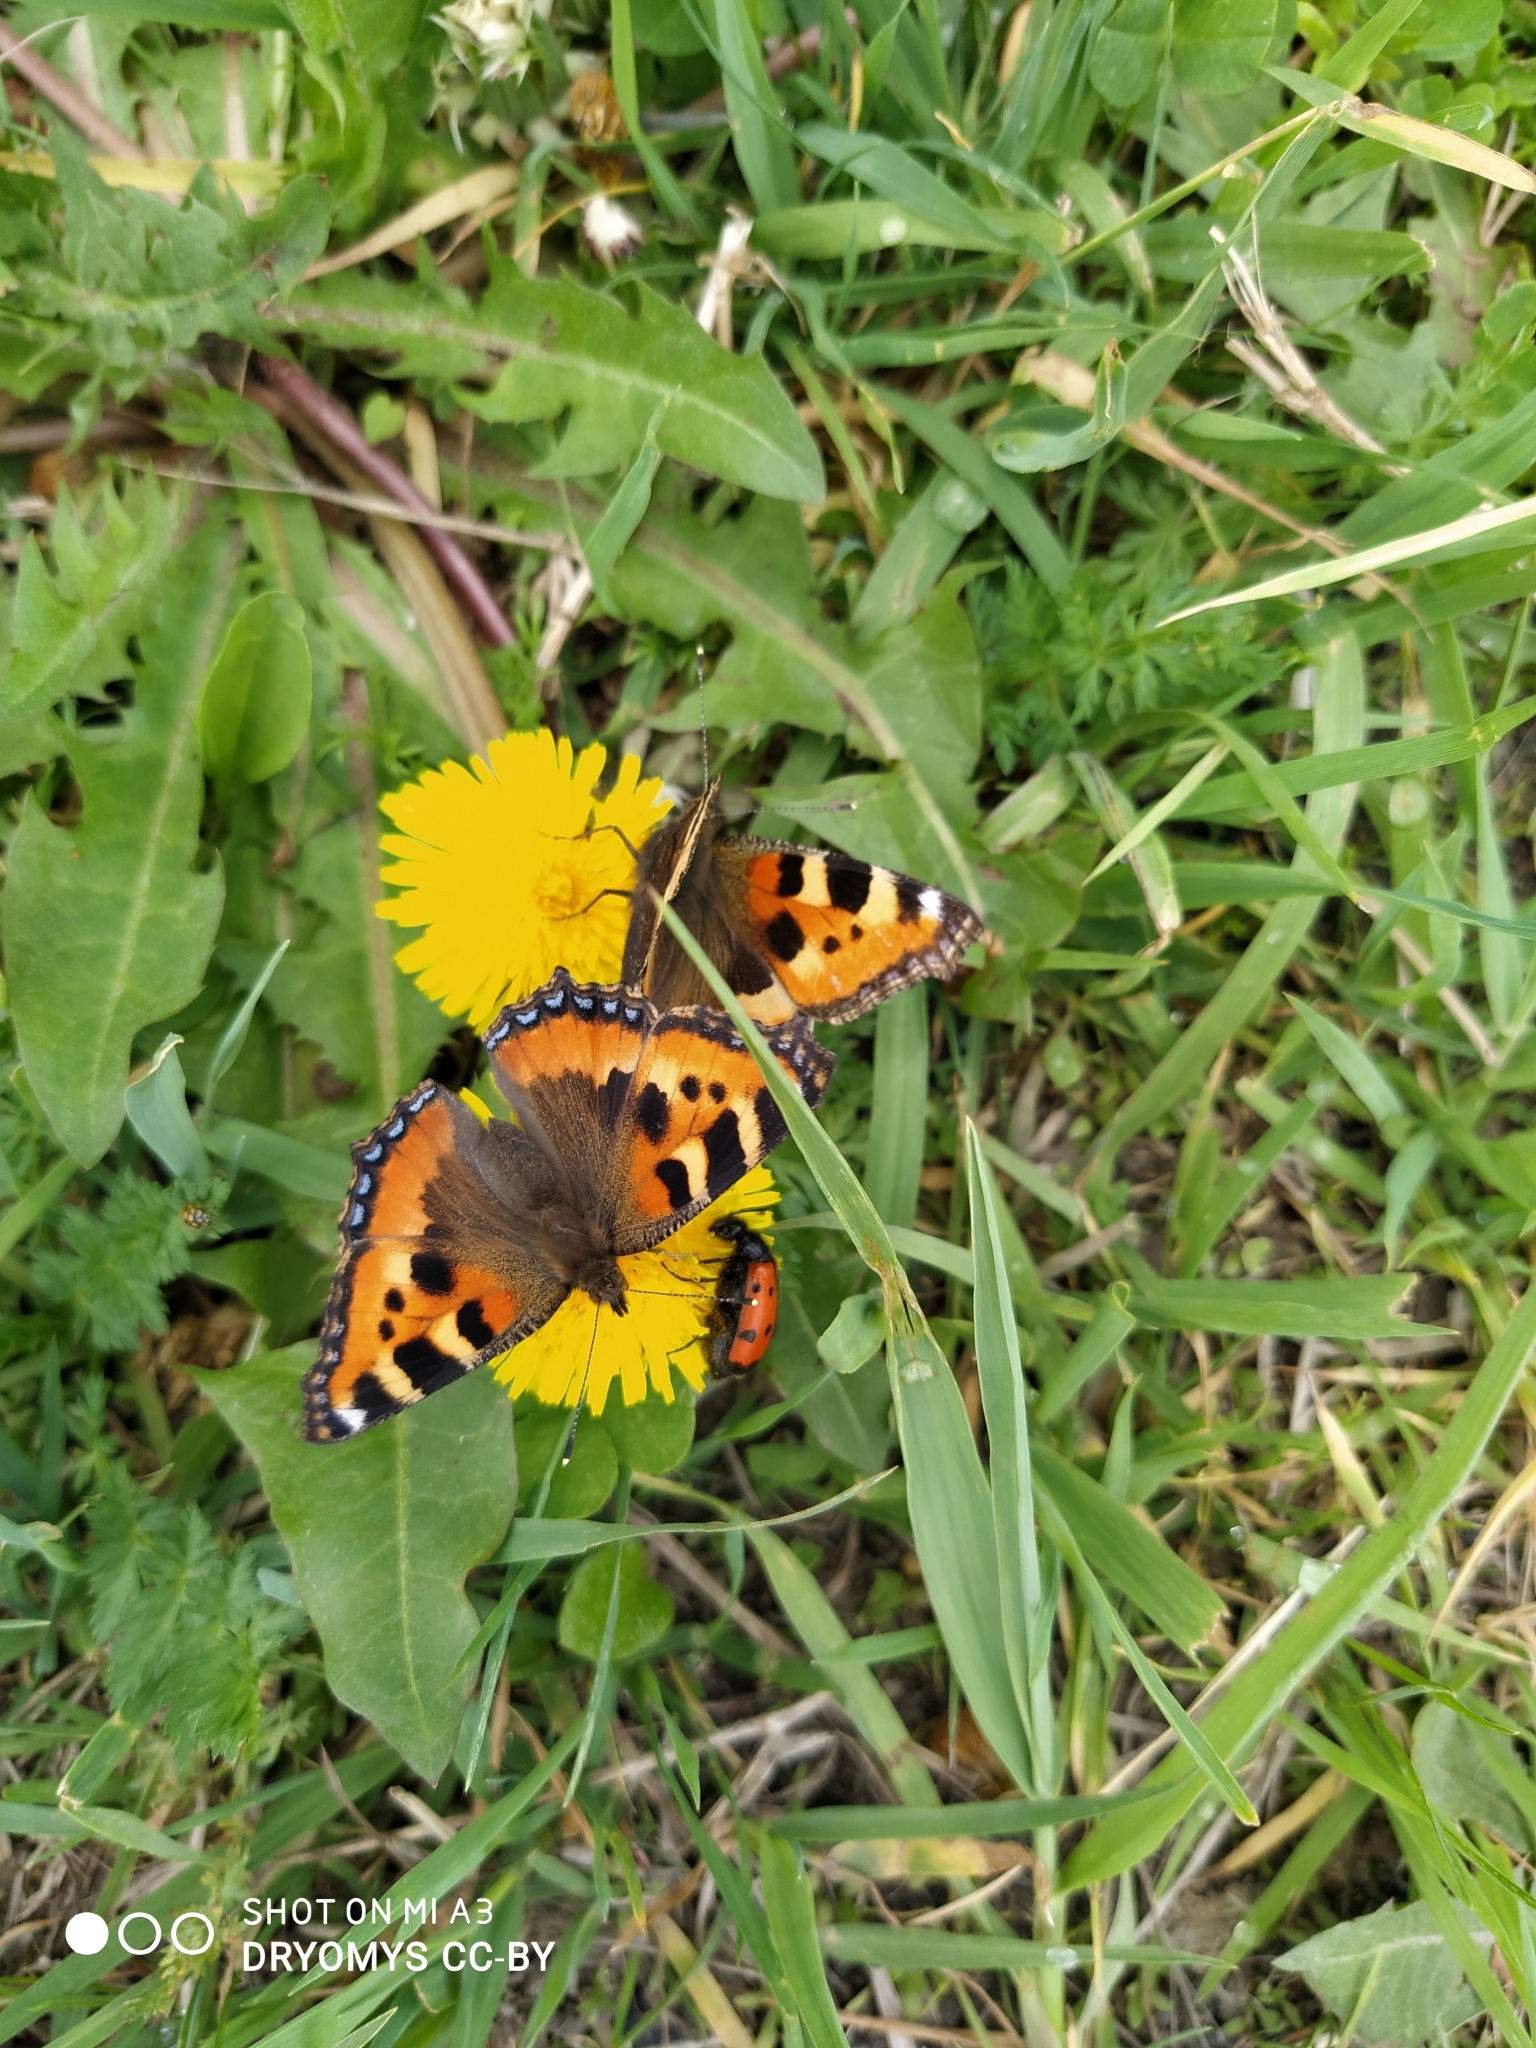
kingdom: Animalia
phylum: Arthropoda
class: Insecta
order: Lepidoptera
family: Nymphalidae
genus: Aglais
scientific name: Aglais urticae
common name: Small tortoiseshell
